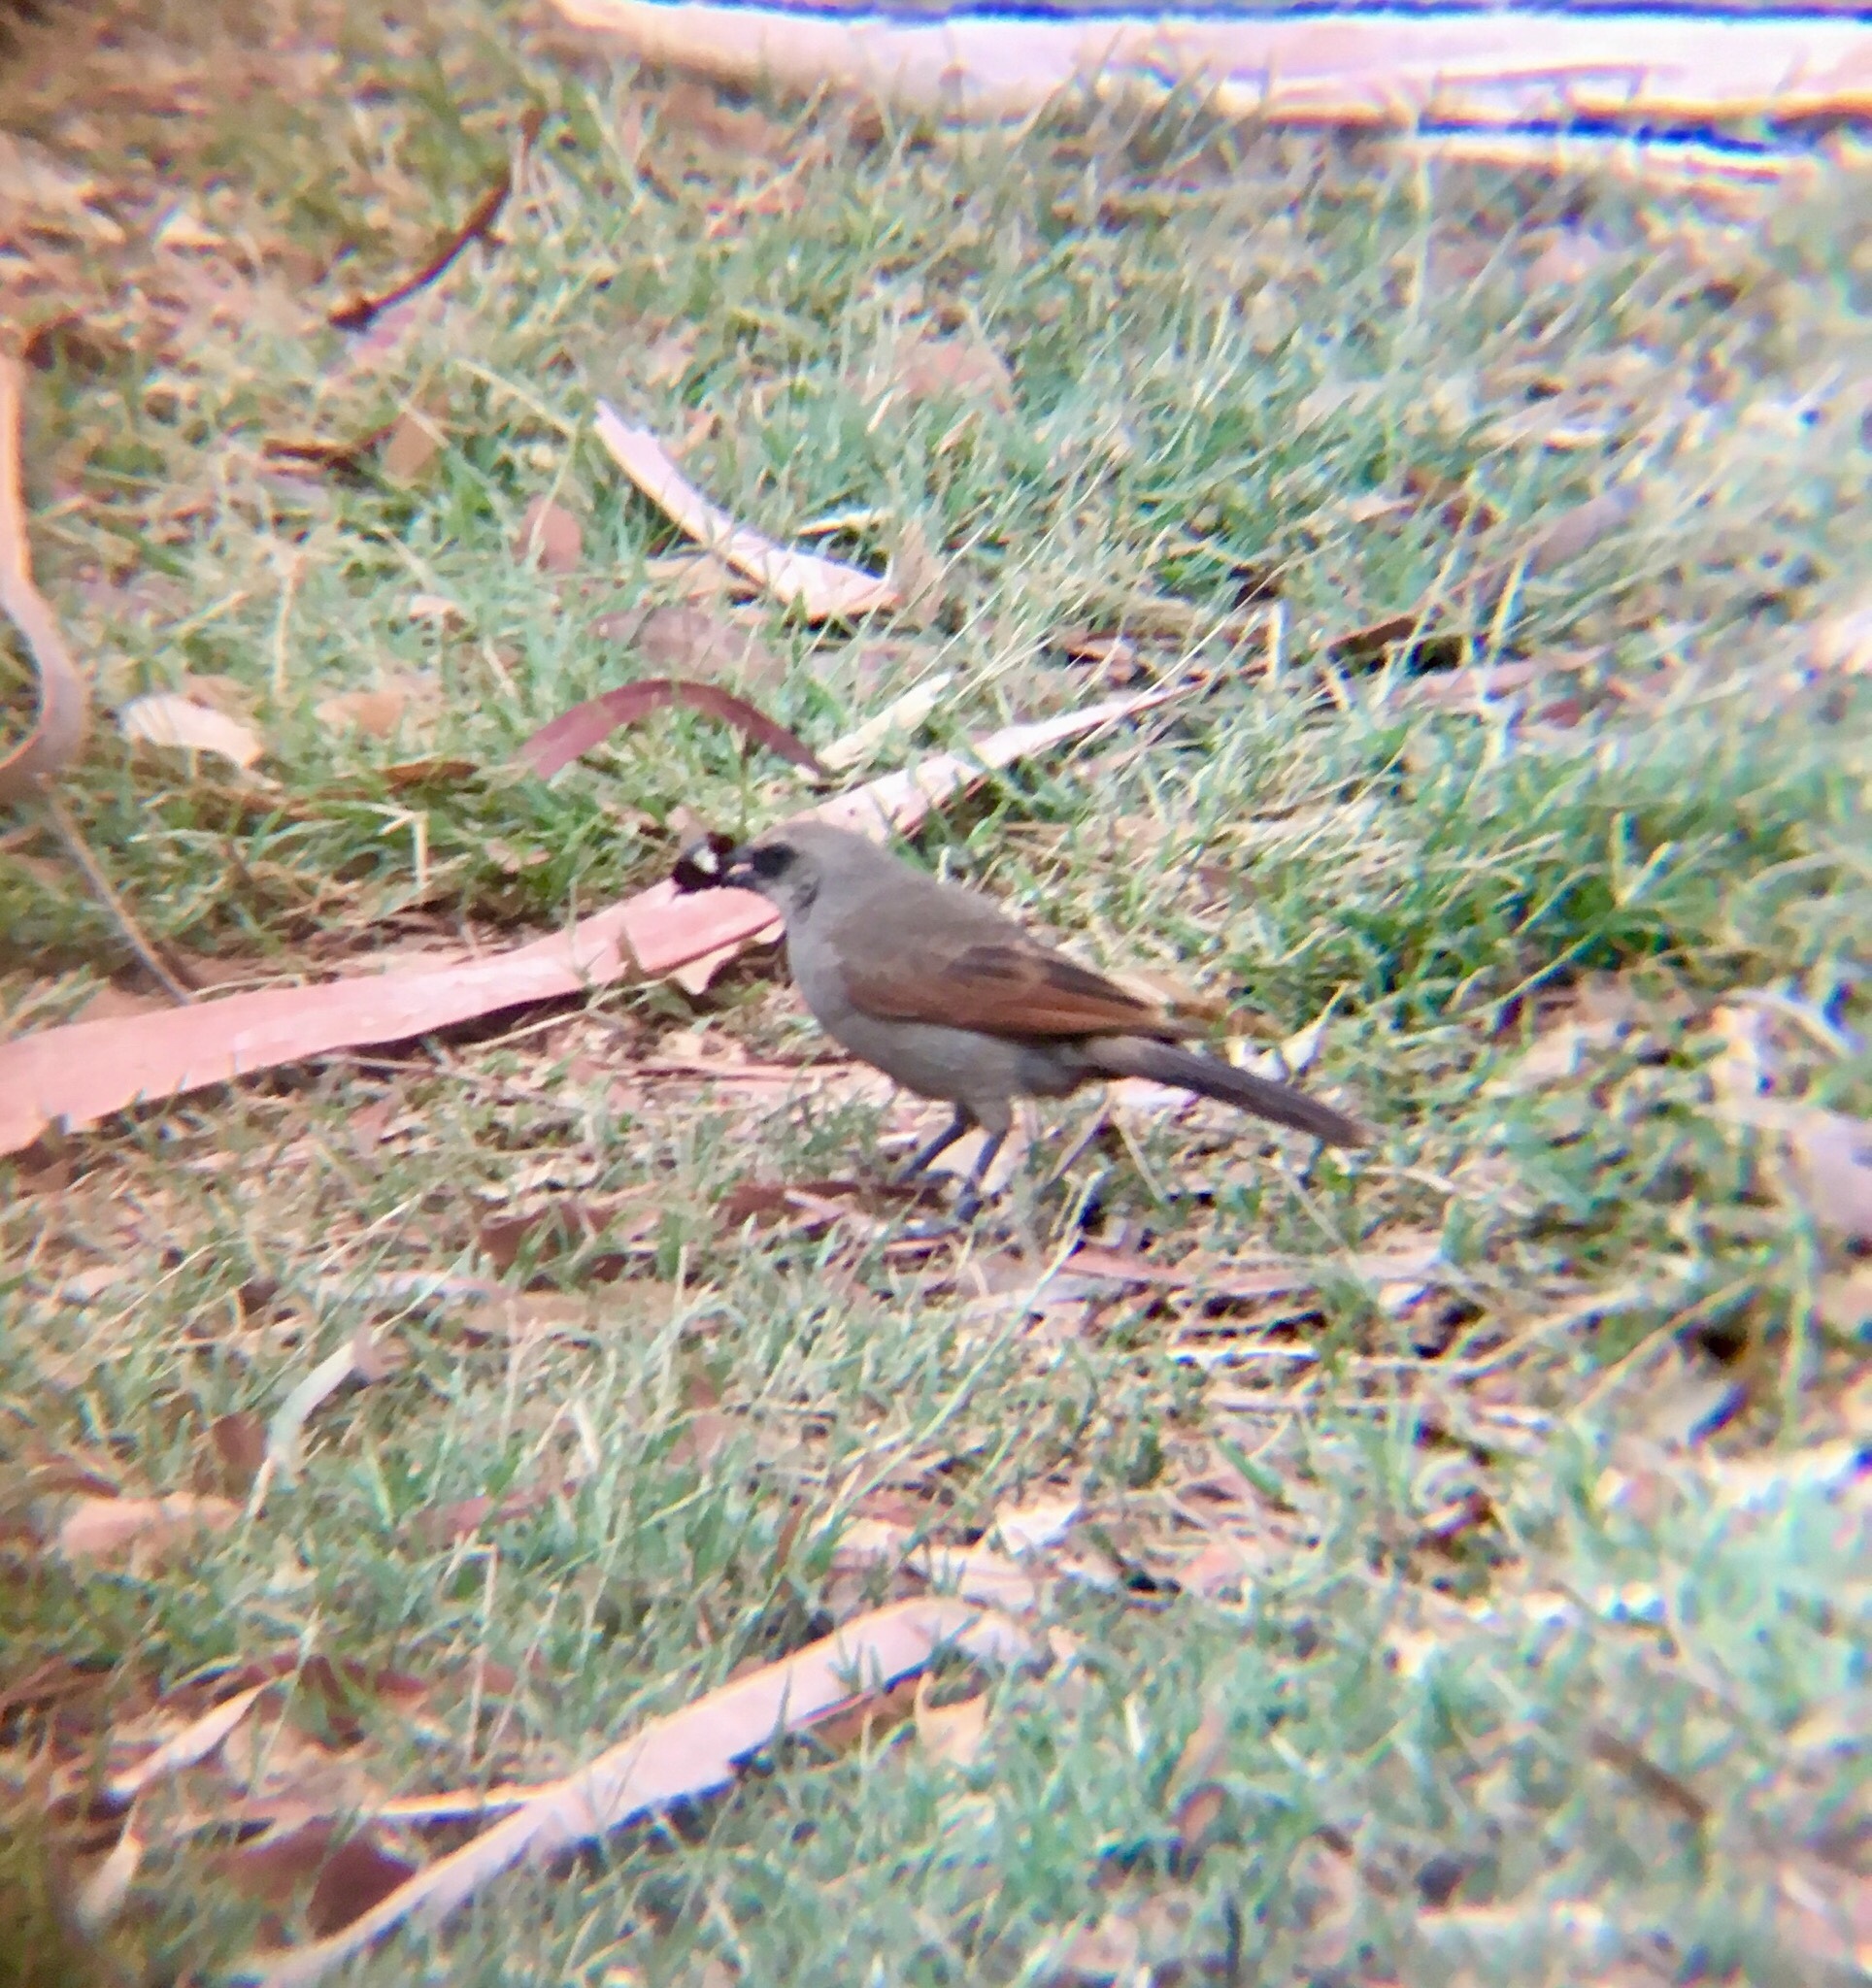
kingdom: Animalia
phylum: Chordata
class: Aves
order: Passeriformes
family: Icteridae
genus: Agelaioides
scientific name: Agelaioides badius
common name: Baywing
